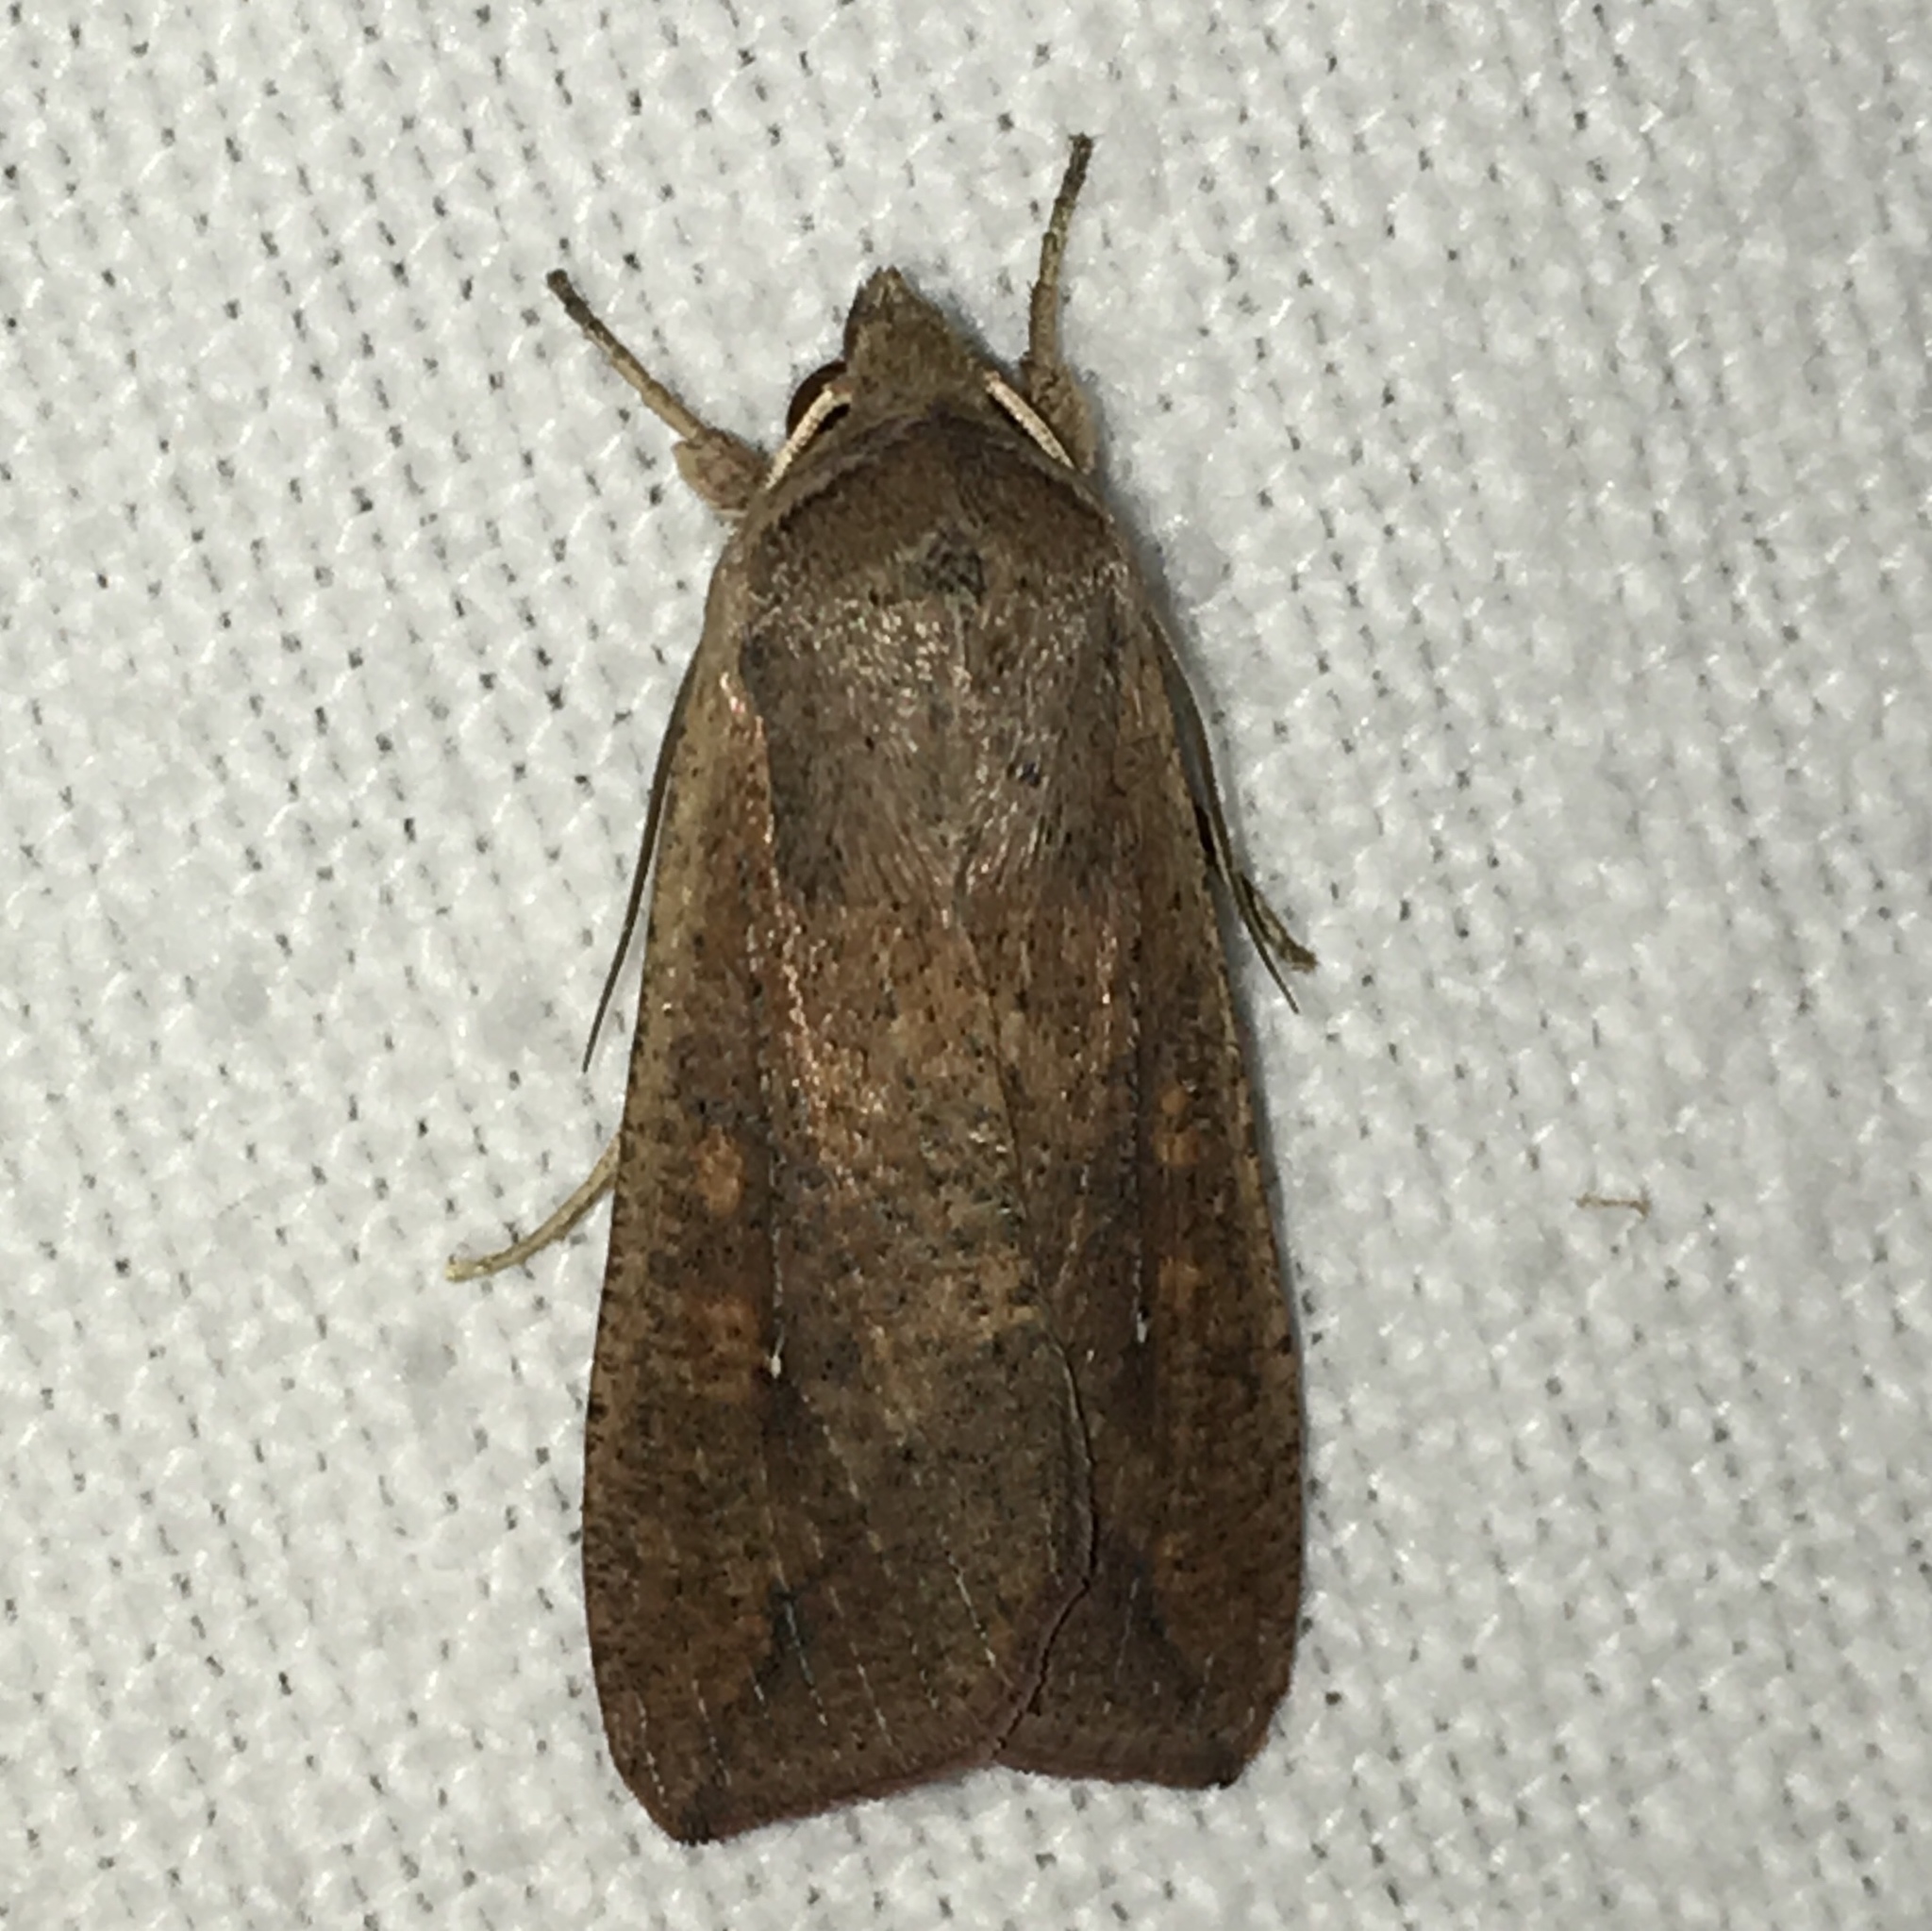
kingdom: Animalia
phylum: Arthropoda
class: Insecta
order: Lepidoptera
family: Noctuidae
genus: Mythimna
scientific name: Mythimna unipuncta
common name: White-speck
